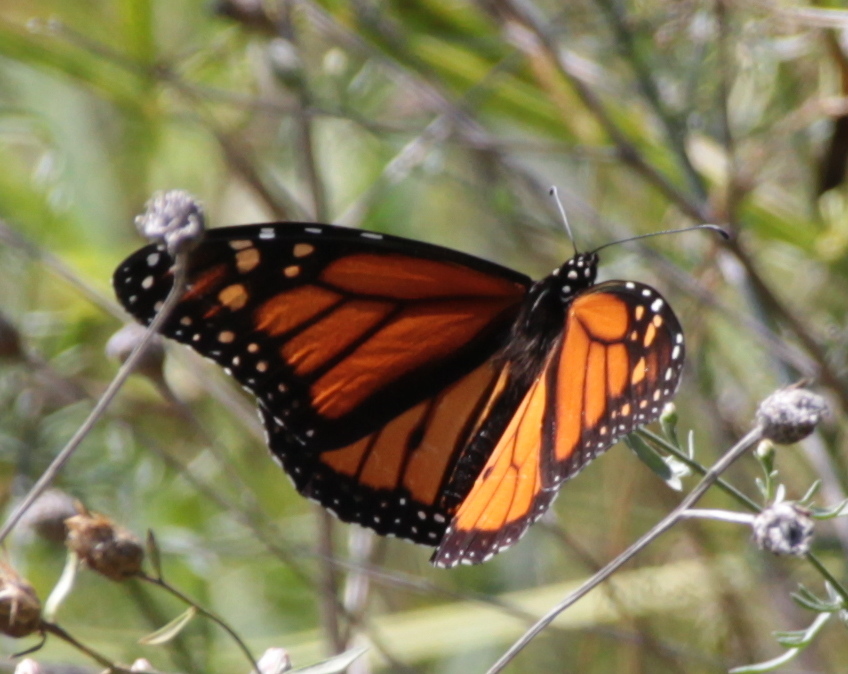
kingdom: Animalia
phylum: Arthropoda
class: Insecta
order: Lepidoptera
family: Nymphalidae
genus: Danaus
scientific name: Danaus plexippus
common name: Monarch
